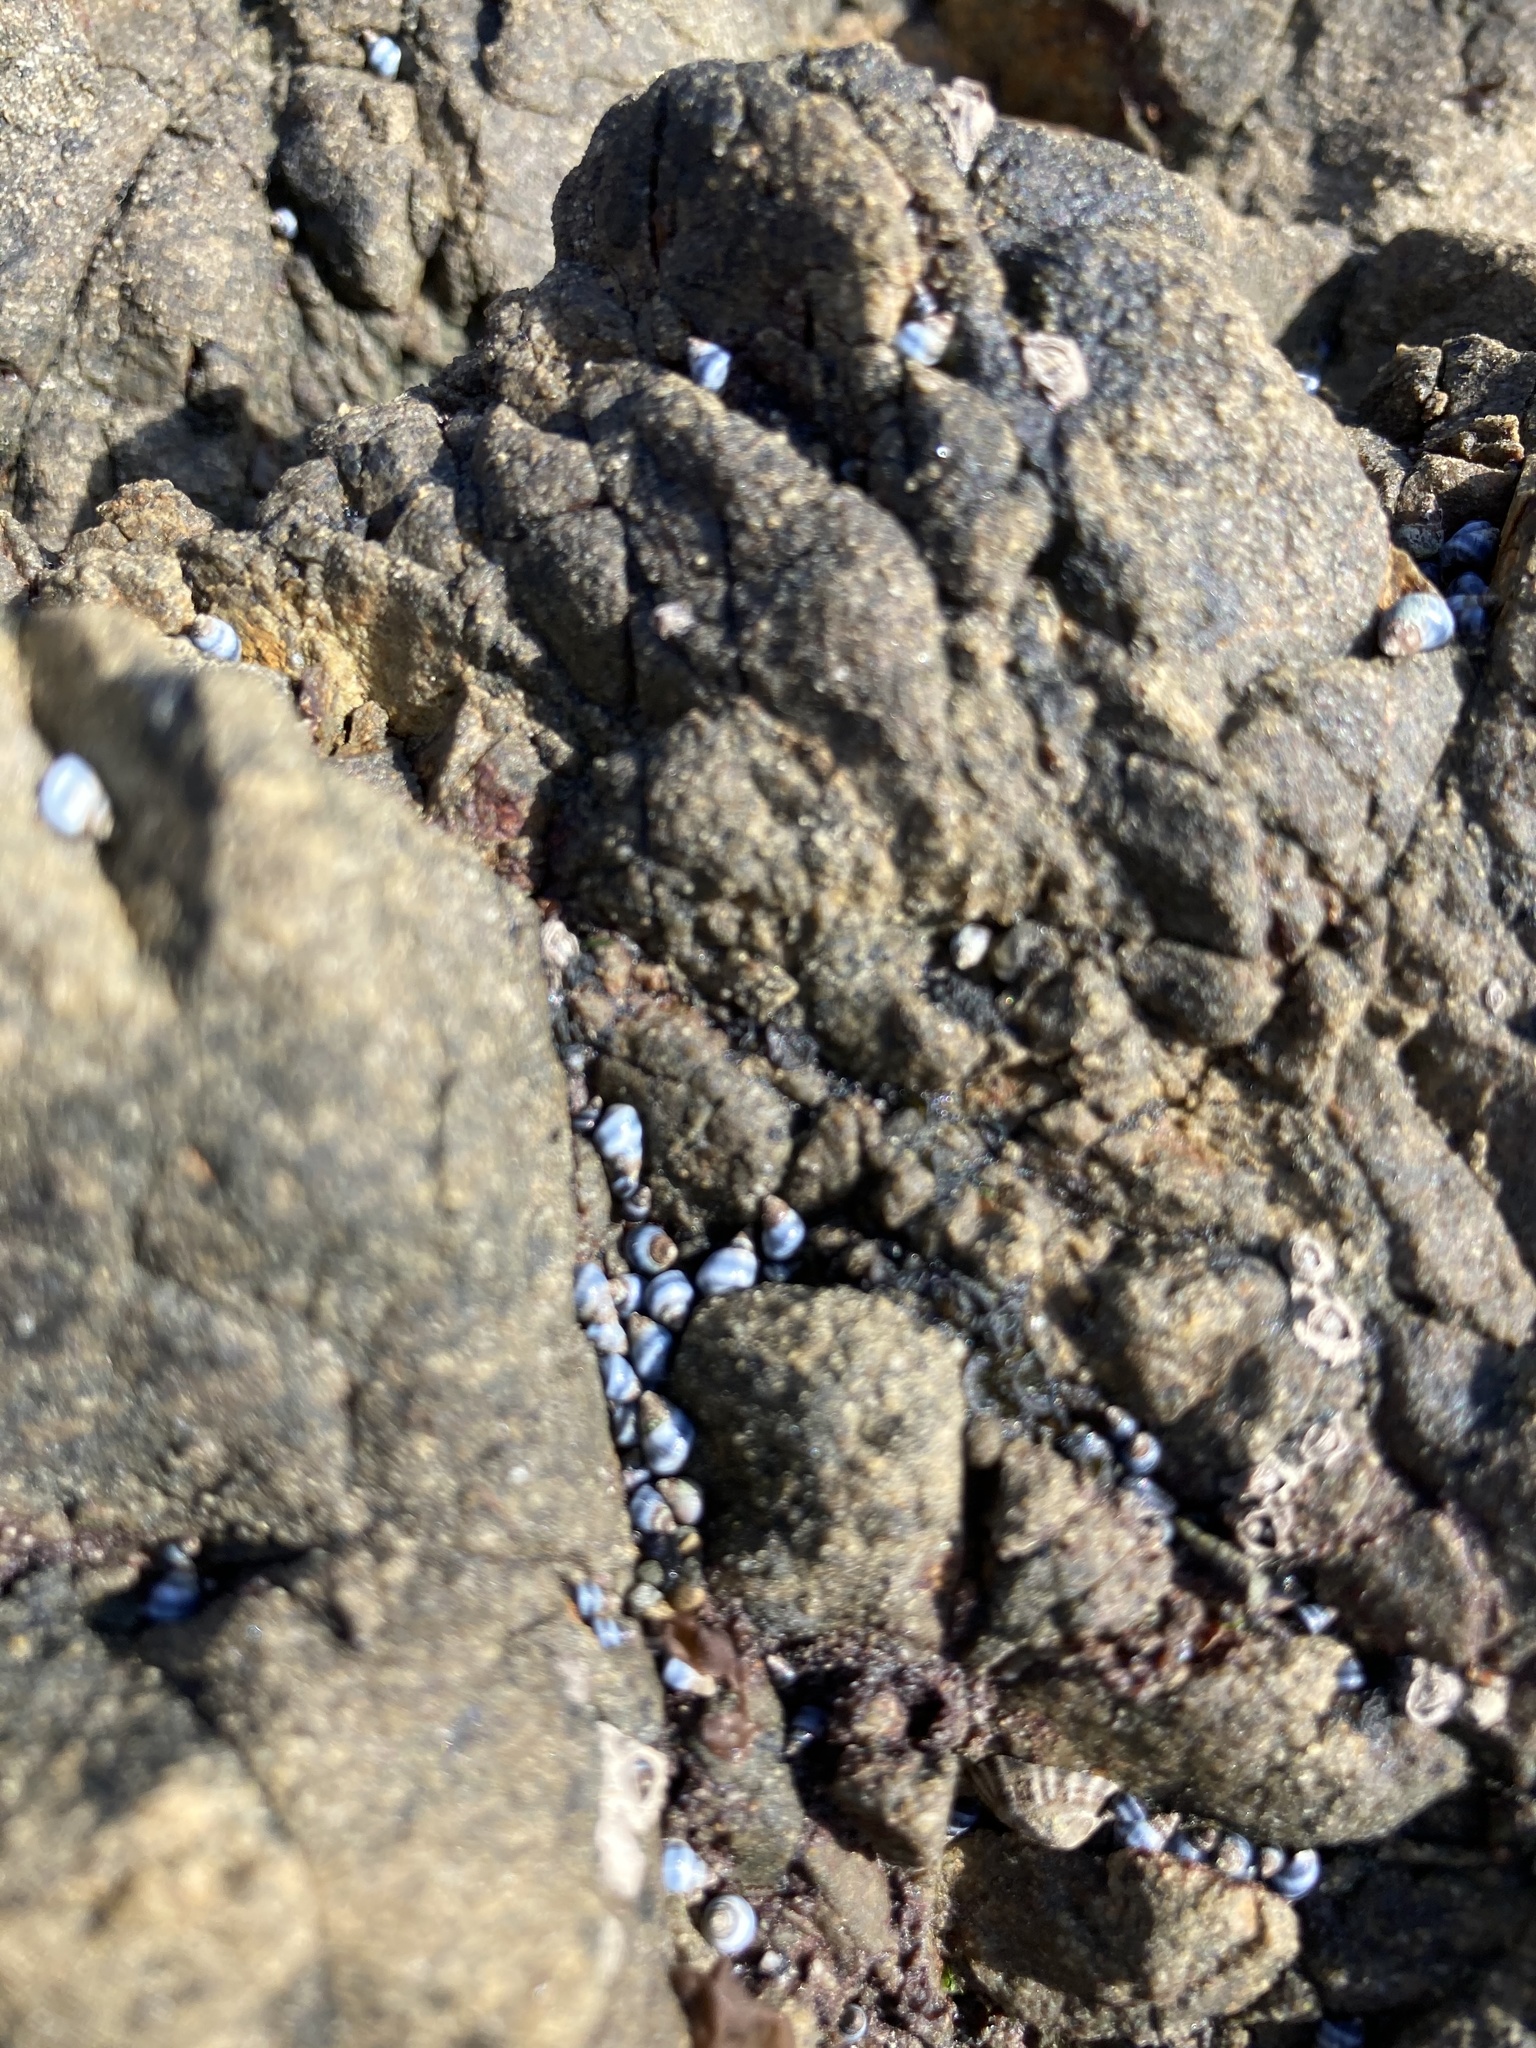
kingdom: Animalia
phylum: Mollusca
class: Gastropoda
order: Littorinimorpha
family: Littorinidae
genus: Austrolittorina
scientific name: Austrolittorina antipodum
